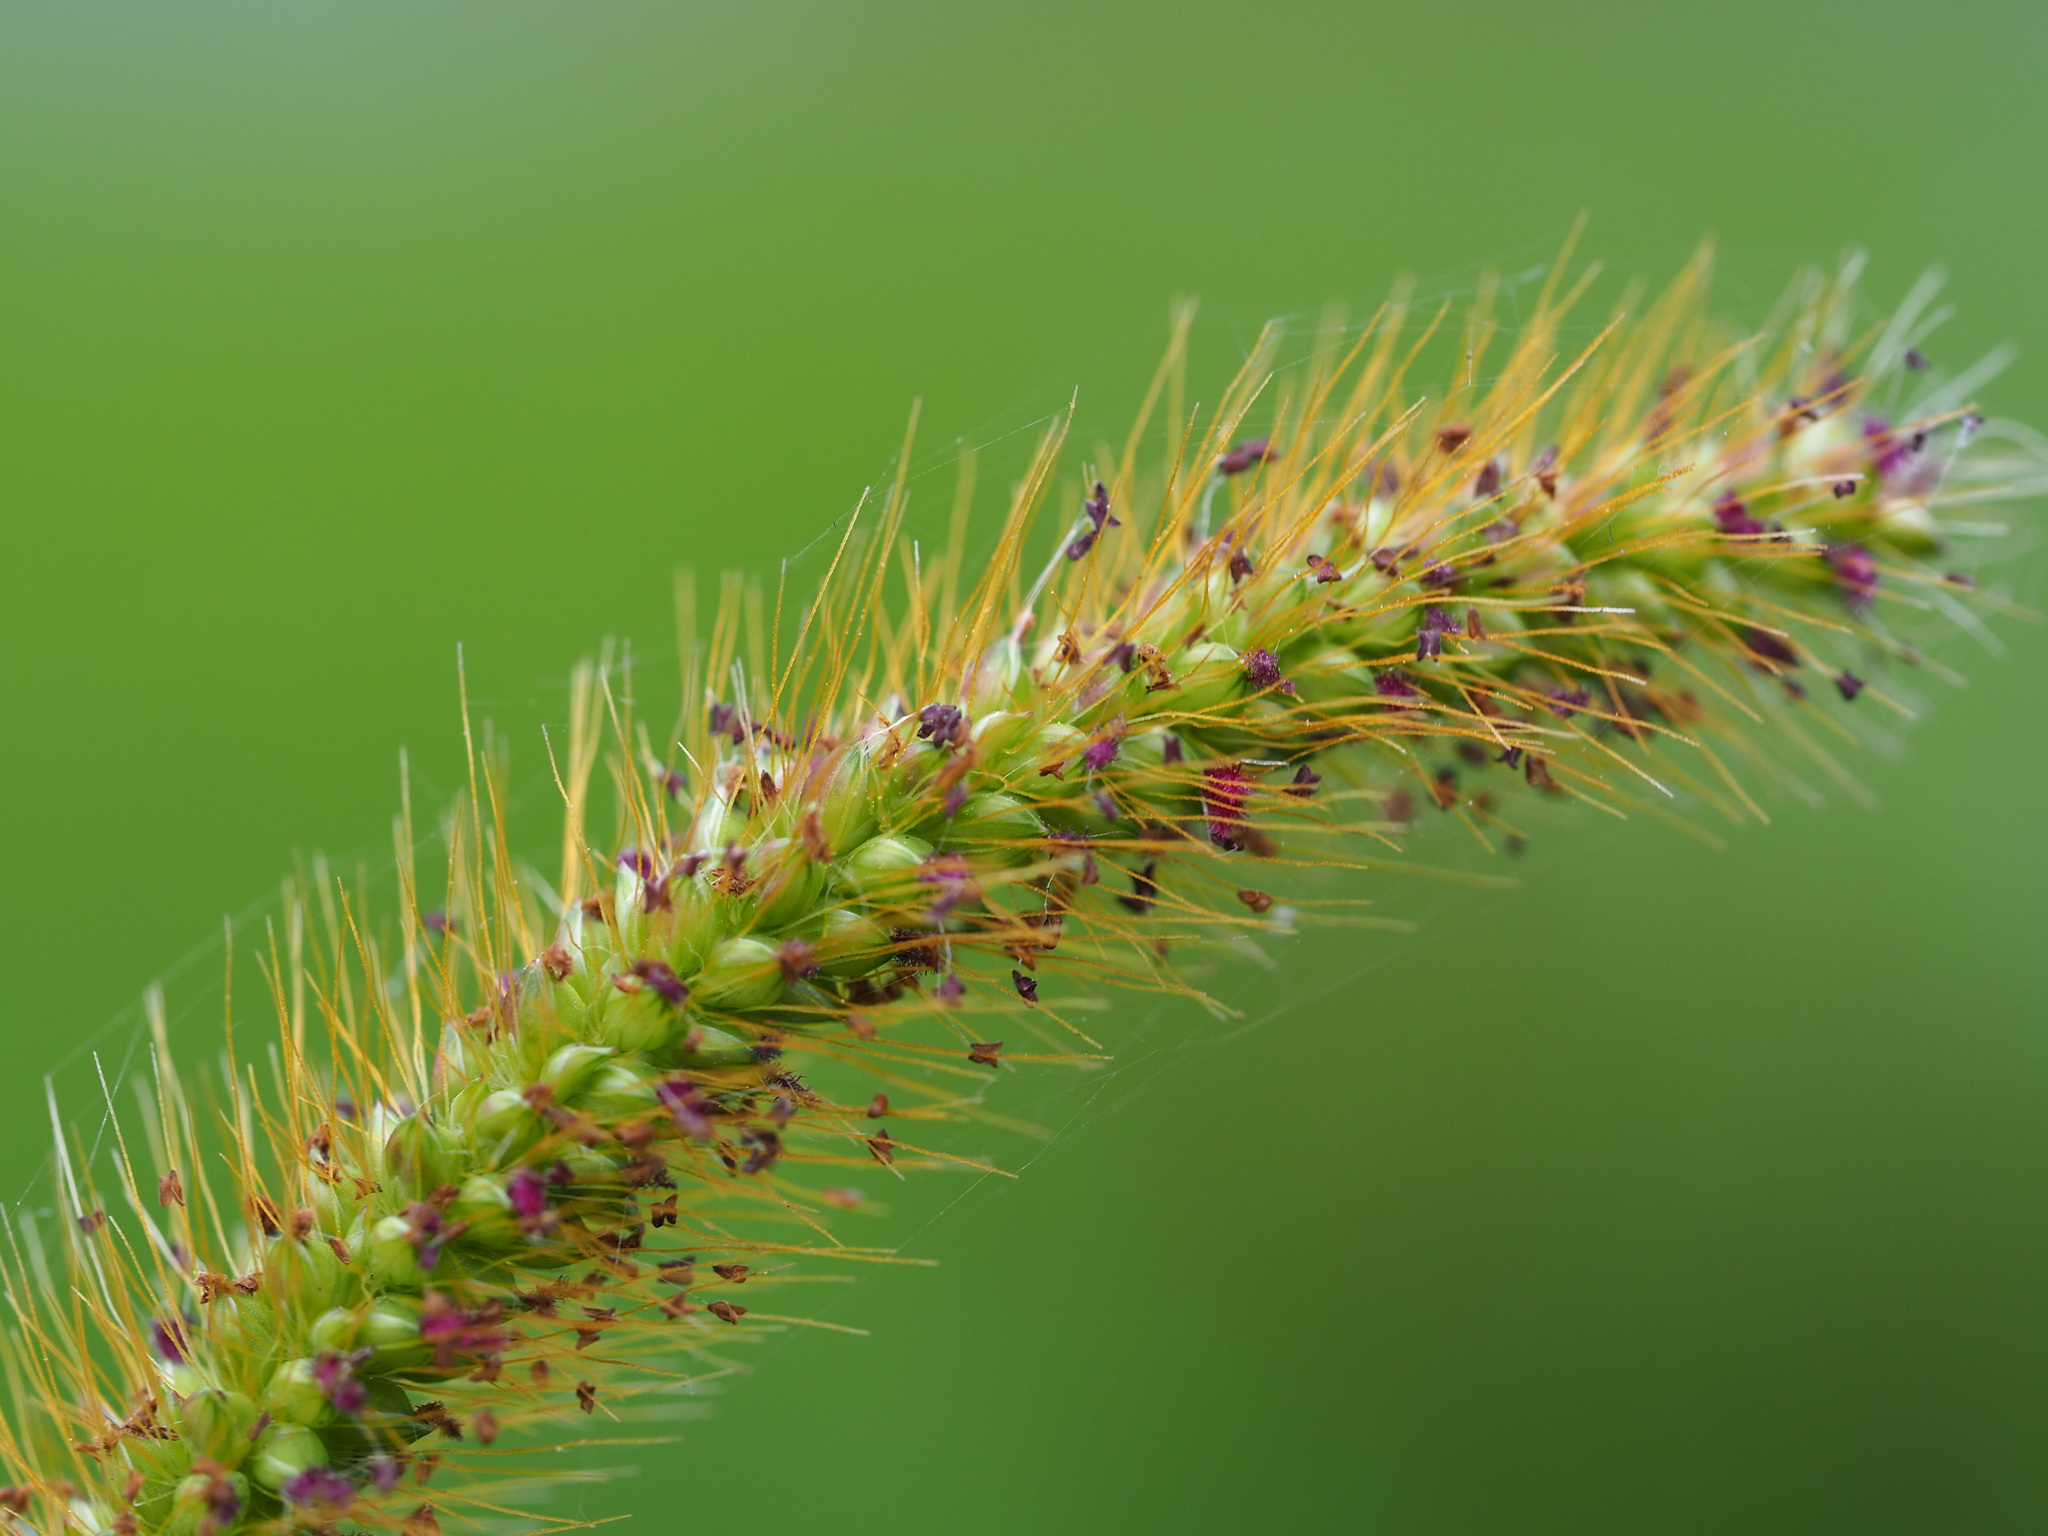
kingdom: Plantae
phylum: Tracheophyta
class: Liliopsida
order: Poales
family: Poaceae
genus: Setaria
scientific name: Setaria parviflora
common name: Knotroot bristle-grass
